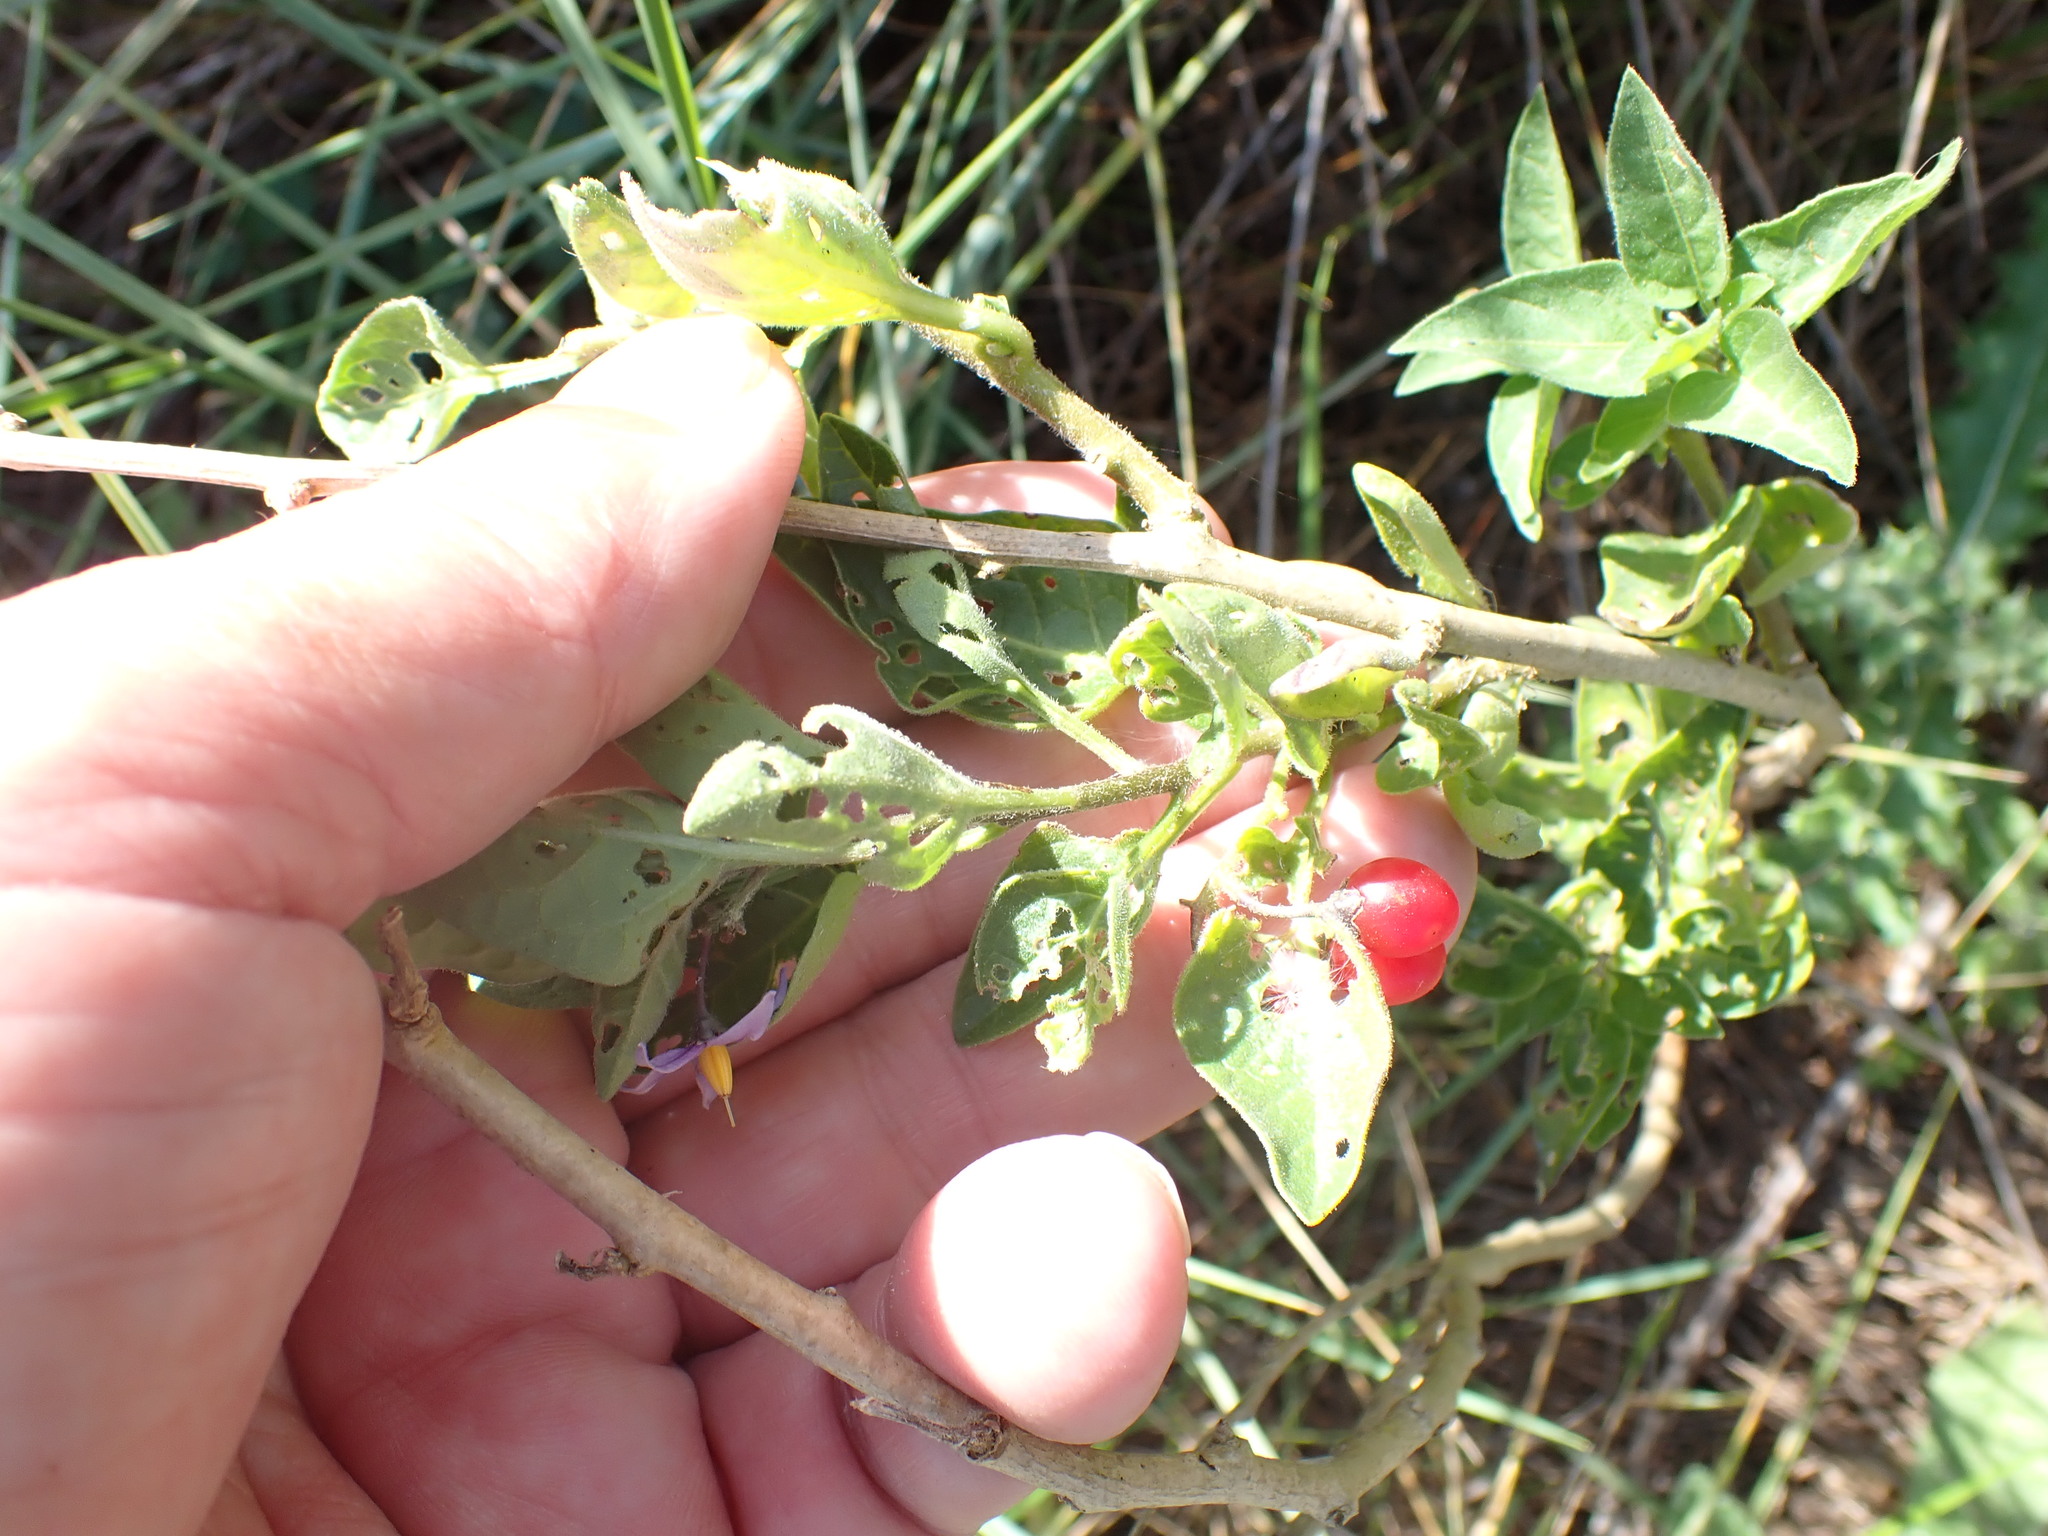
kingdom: Plantae
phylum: Tracheophyta
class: Magnoliopsida
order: Solanales
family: Solanaceae
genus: Solanum
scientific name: Solanum dulcamara
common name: Climbing nightshade
